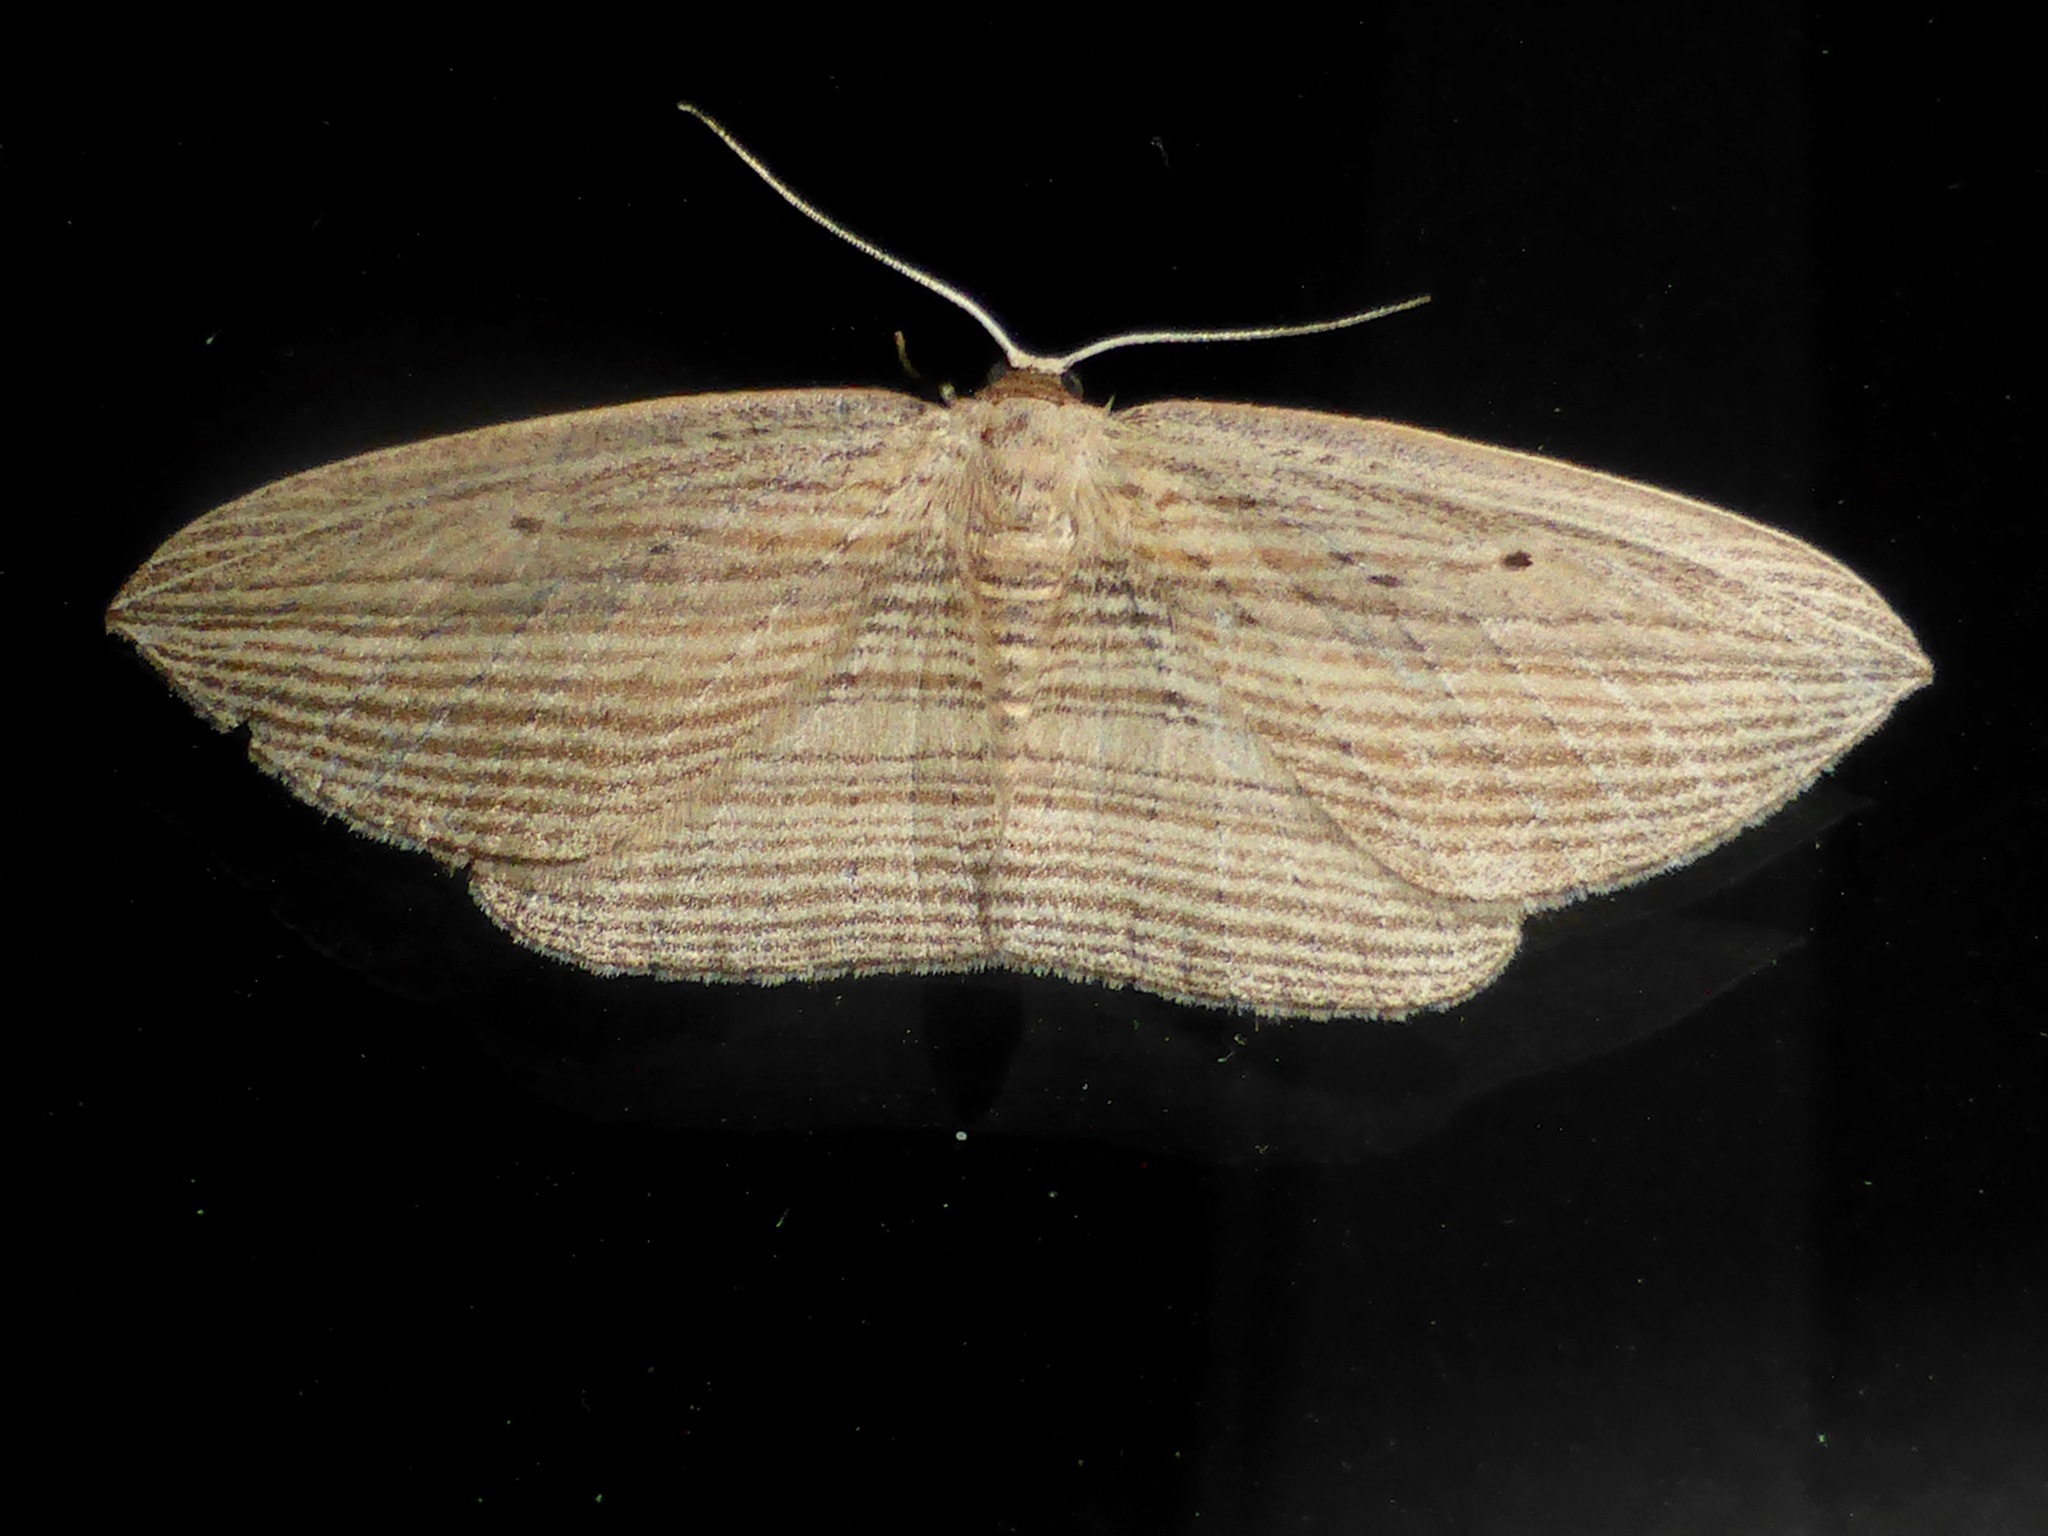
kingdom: Animalia
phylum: Arthropoda
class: Insecta
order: Lepidoptera
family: Geometridae
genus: Epiphryne
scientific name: Epiphryne verriculata
